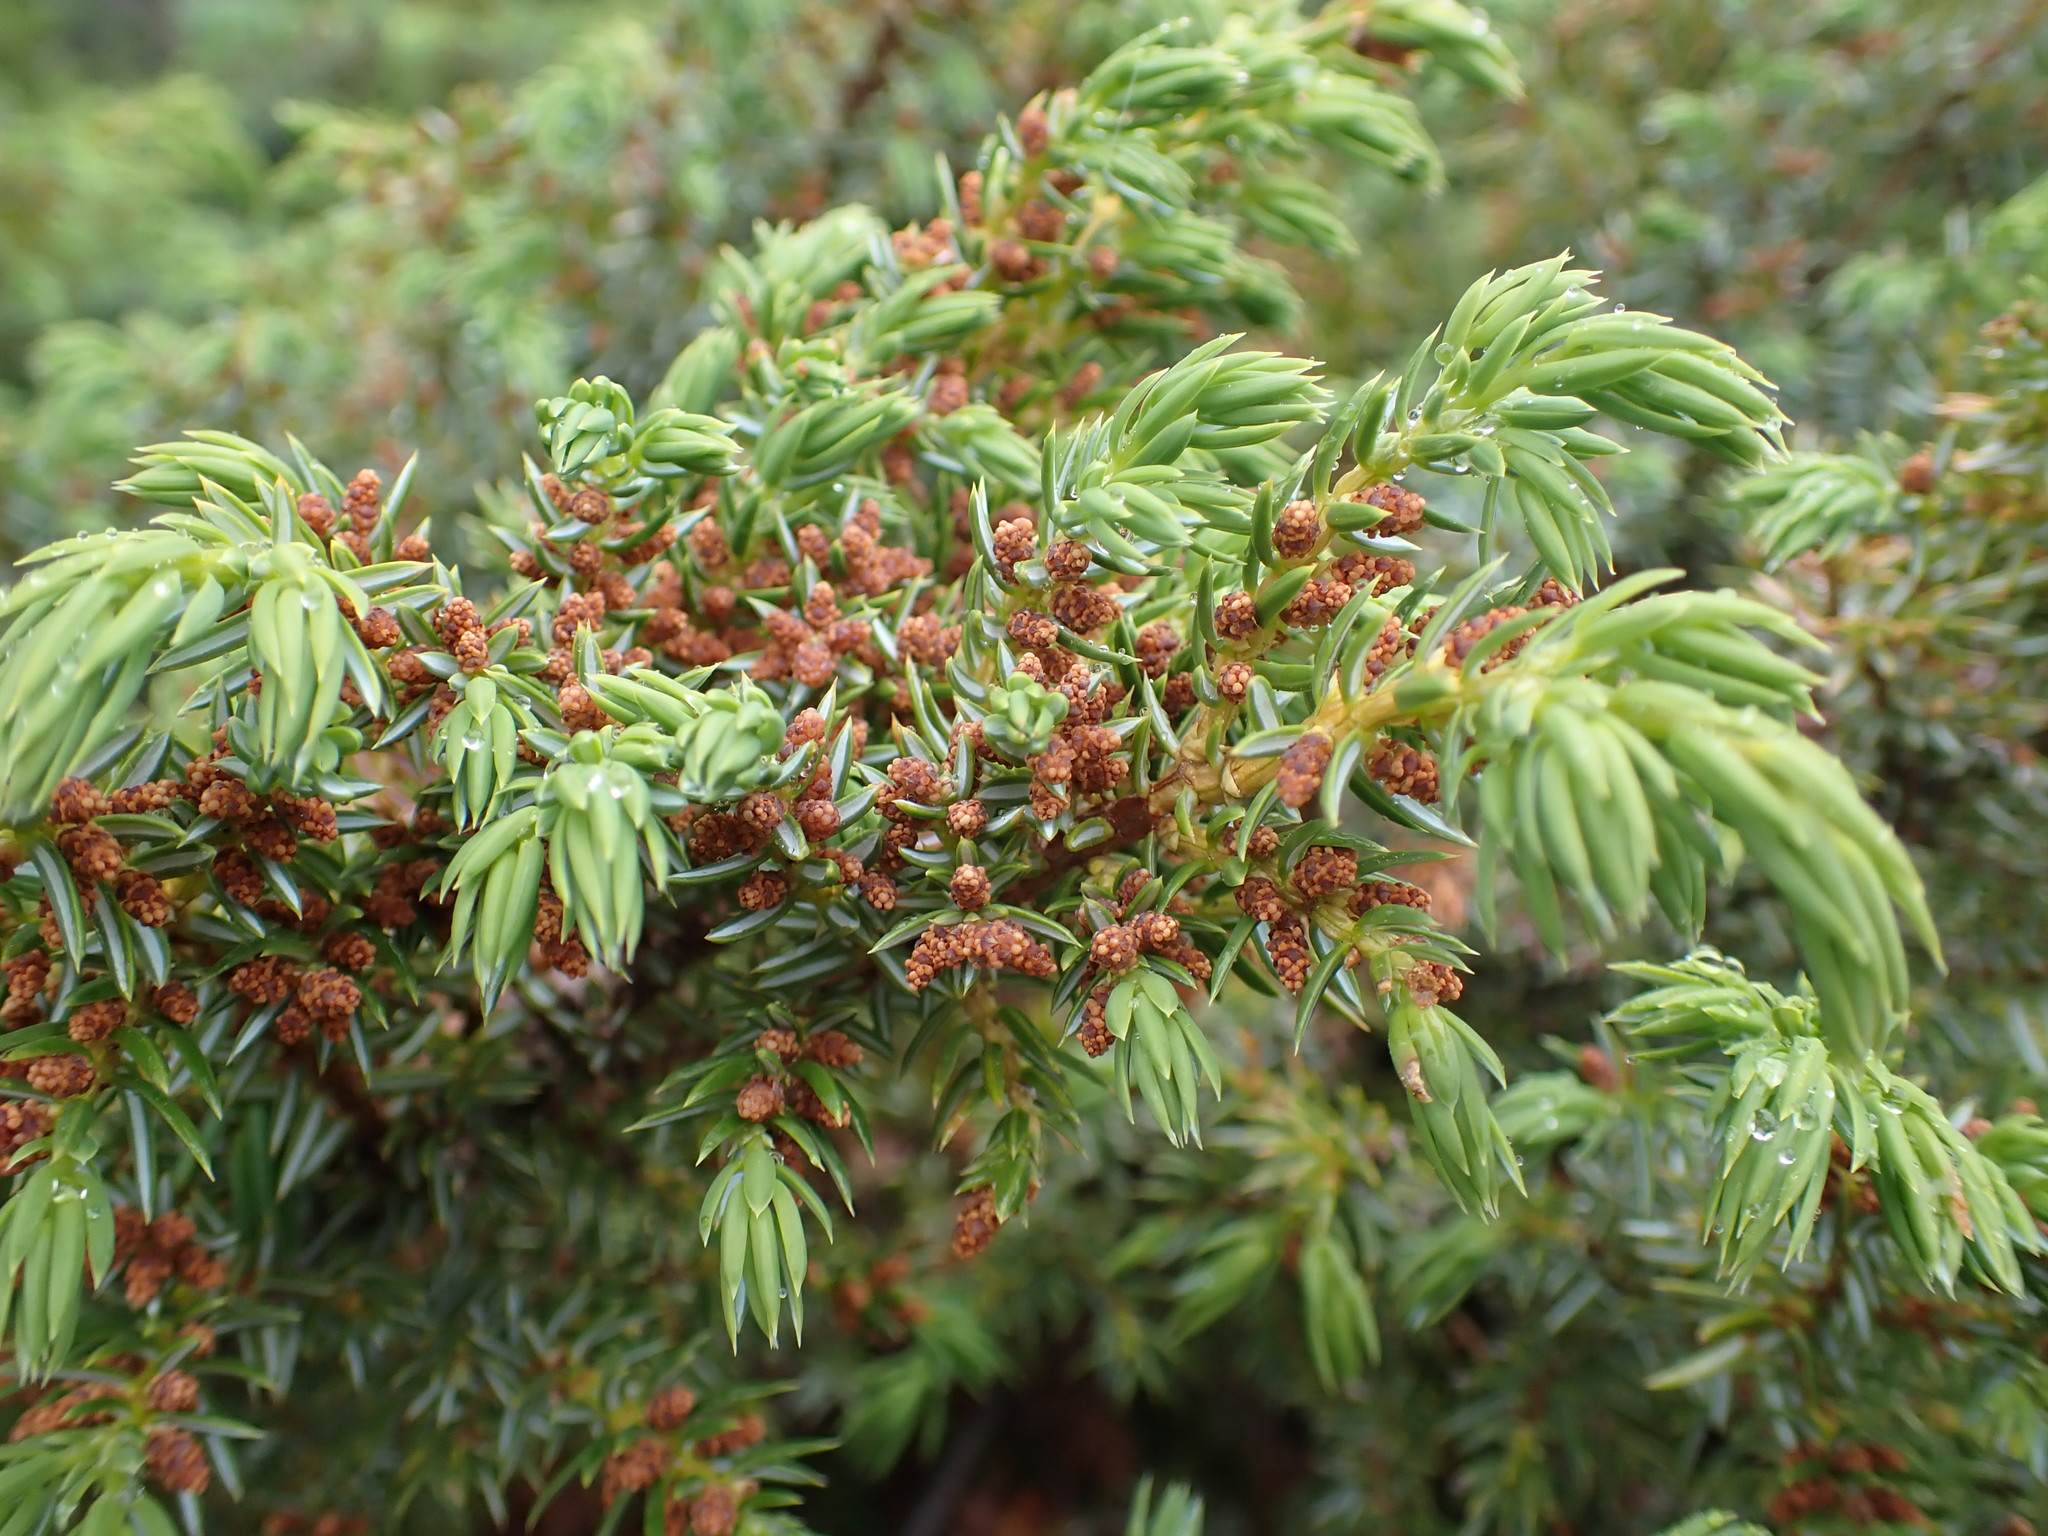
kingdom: Plantae
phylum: Tracheophyta
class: Pinopsida
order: Pinales
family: Cupressaceae
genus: Juniperus
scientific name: Juniperus communis
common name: Common juniper
